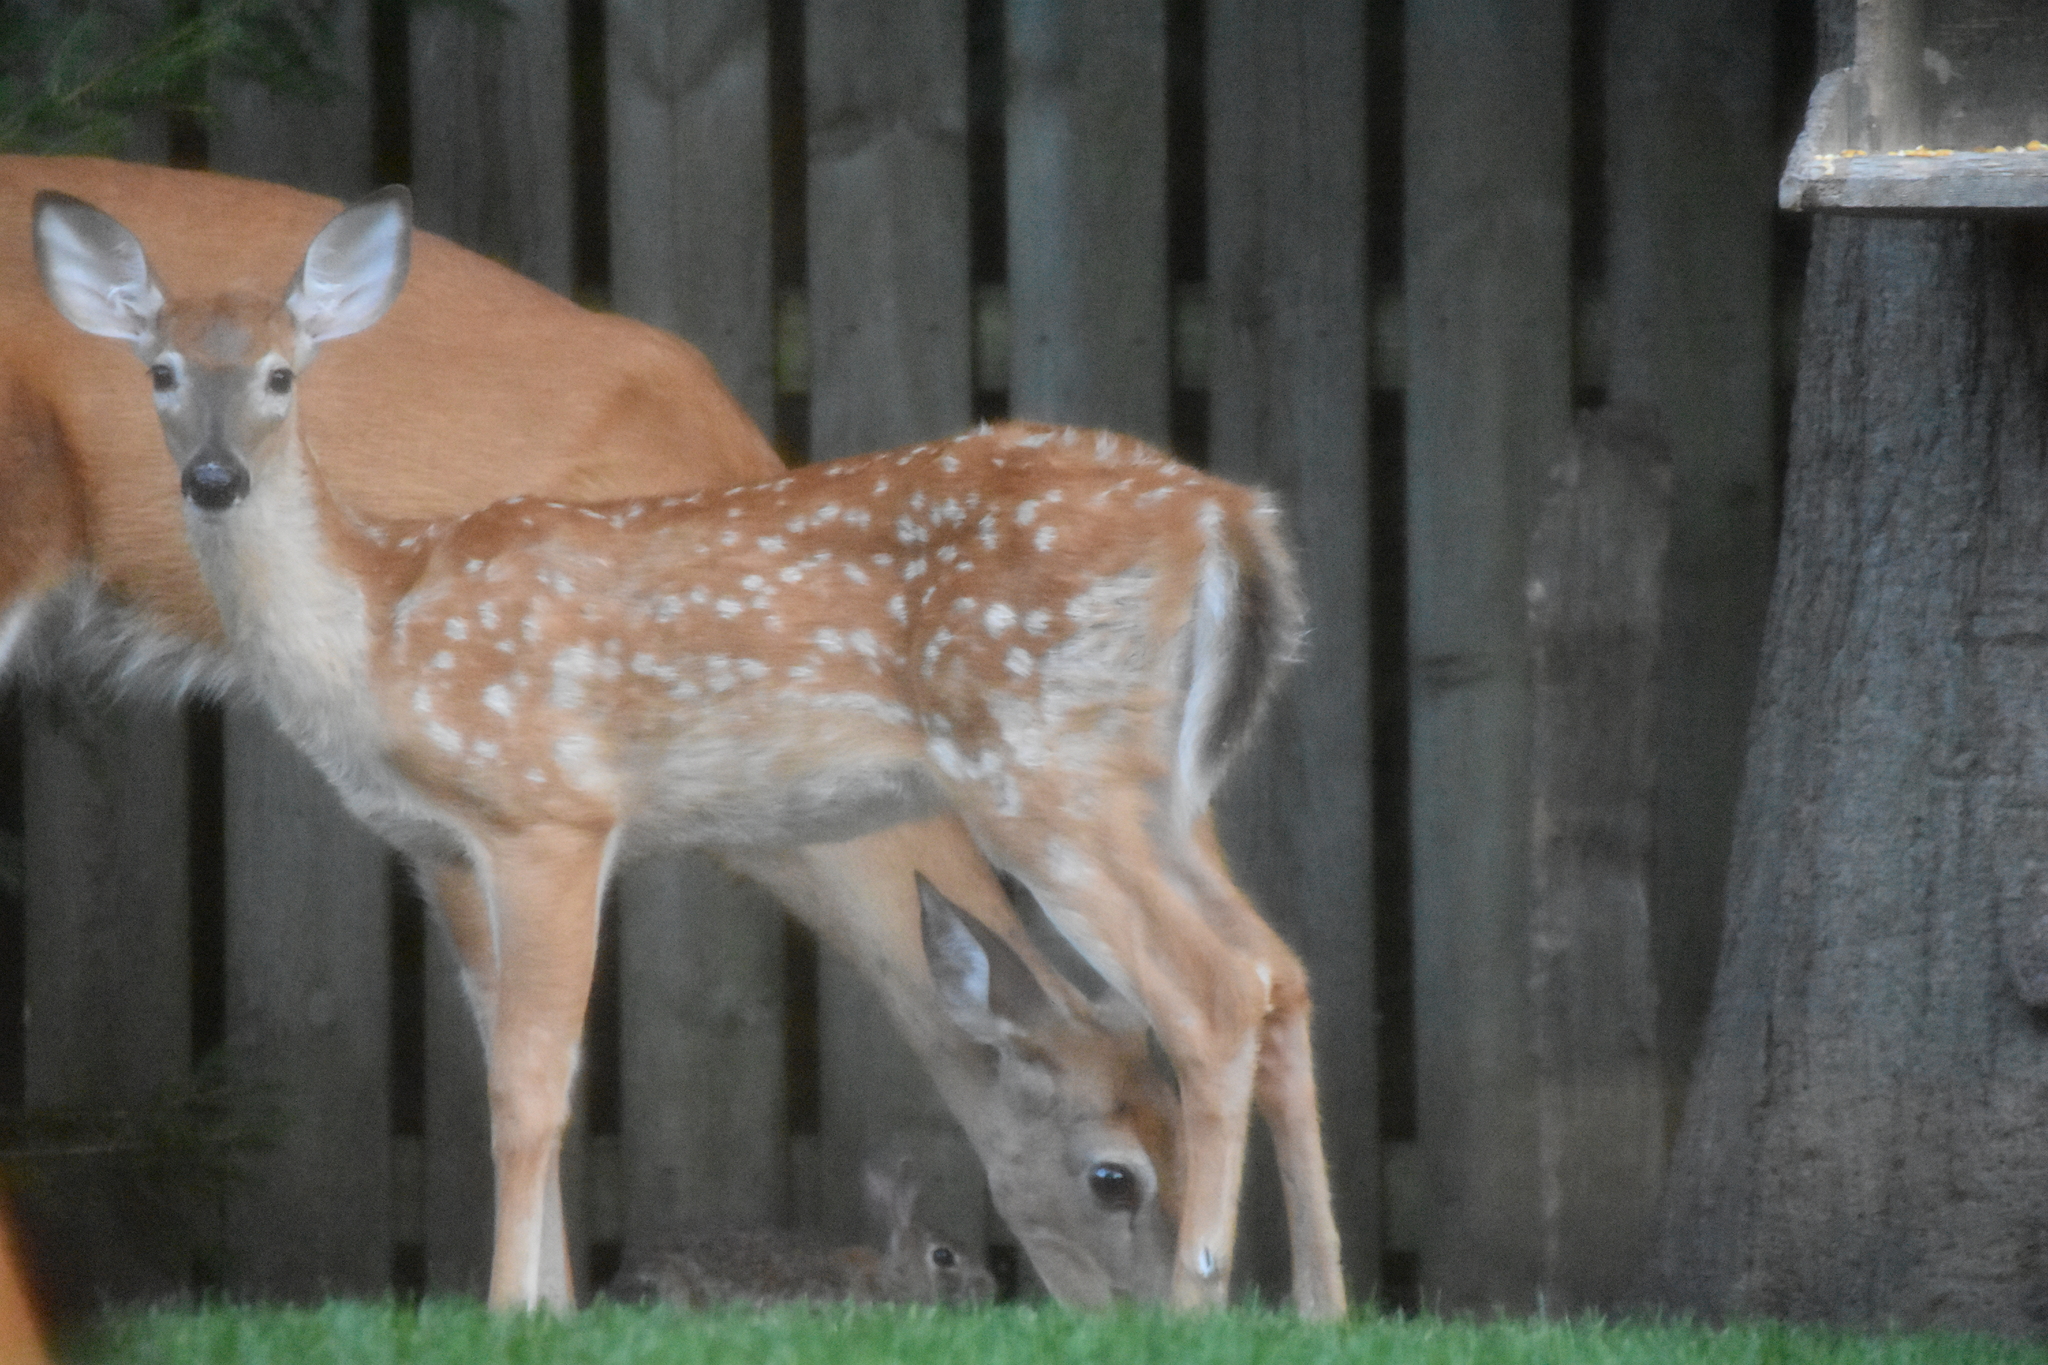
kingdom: Animalia
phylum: Chordata
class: Mammalia
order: Artiodactyla
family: Cervidae
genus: Odocoileus
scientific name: Odocoileus virginianus
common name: White-tailed deer
